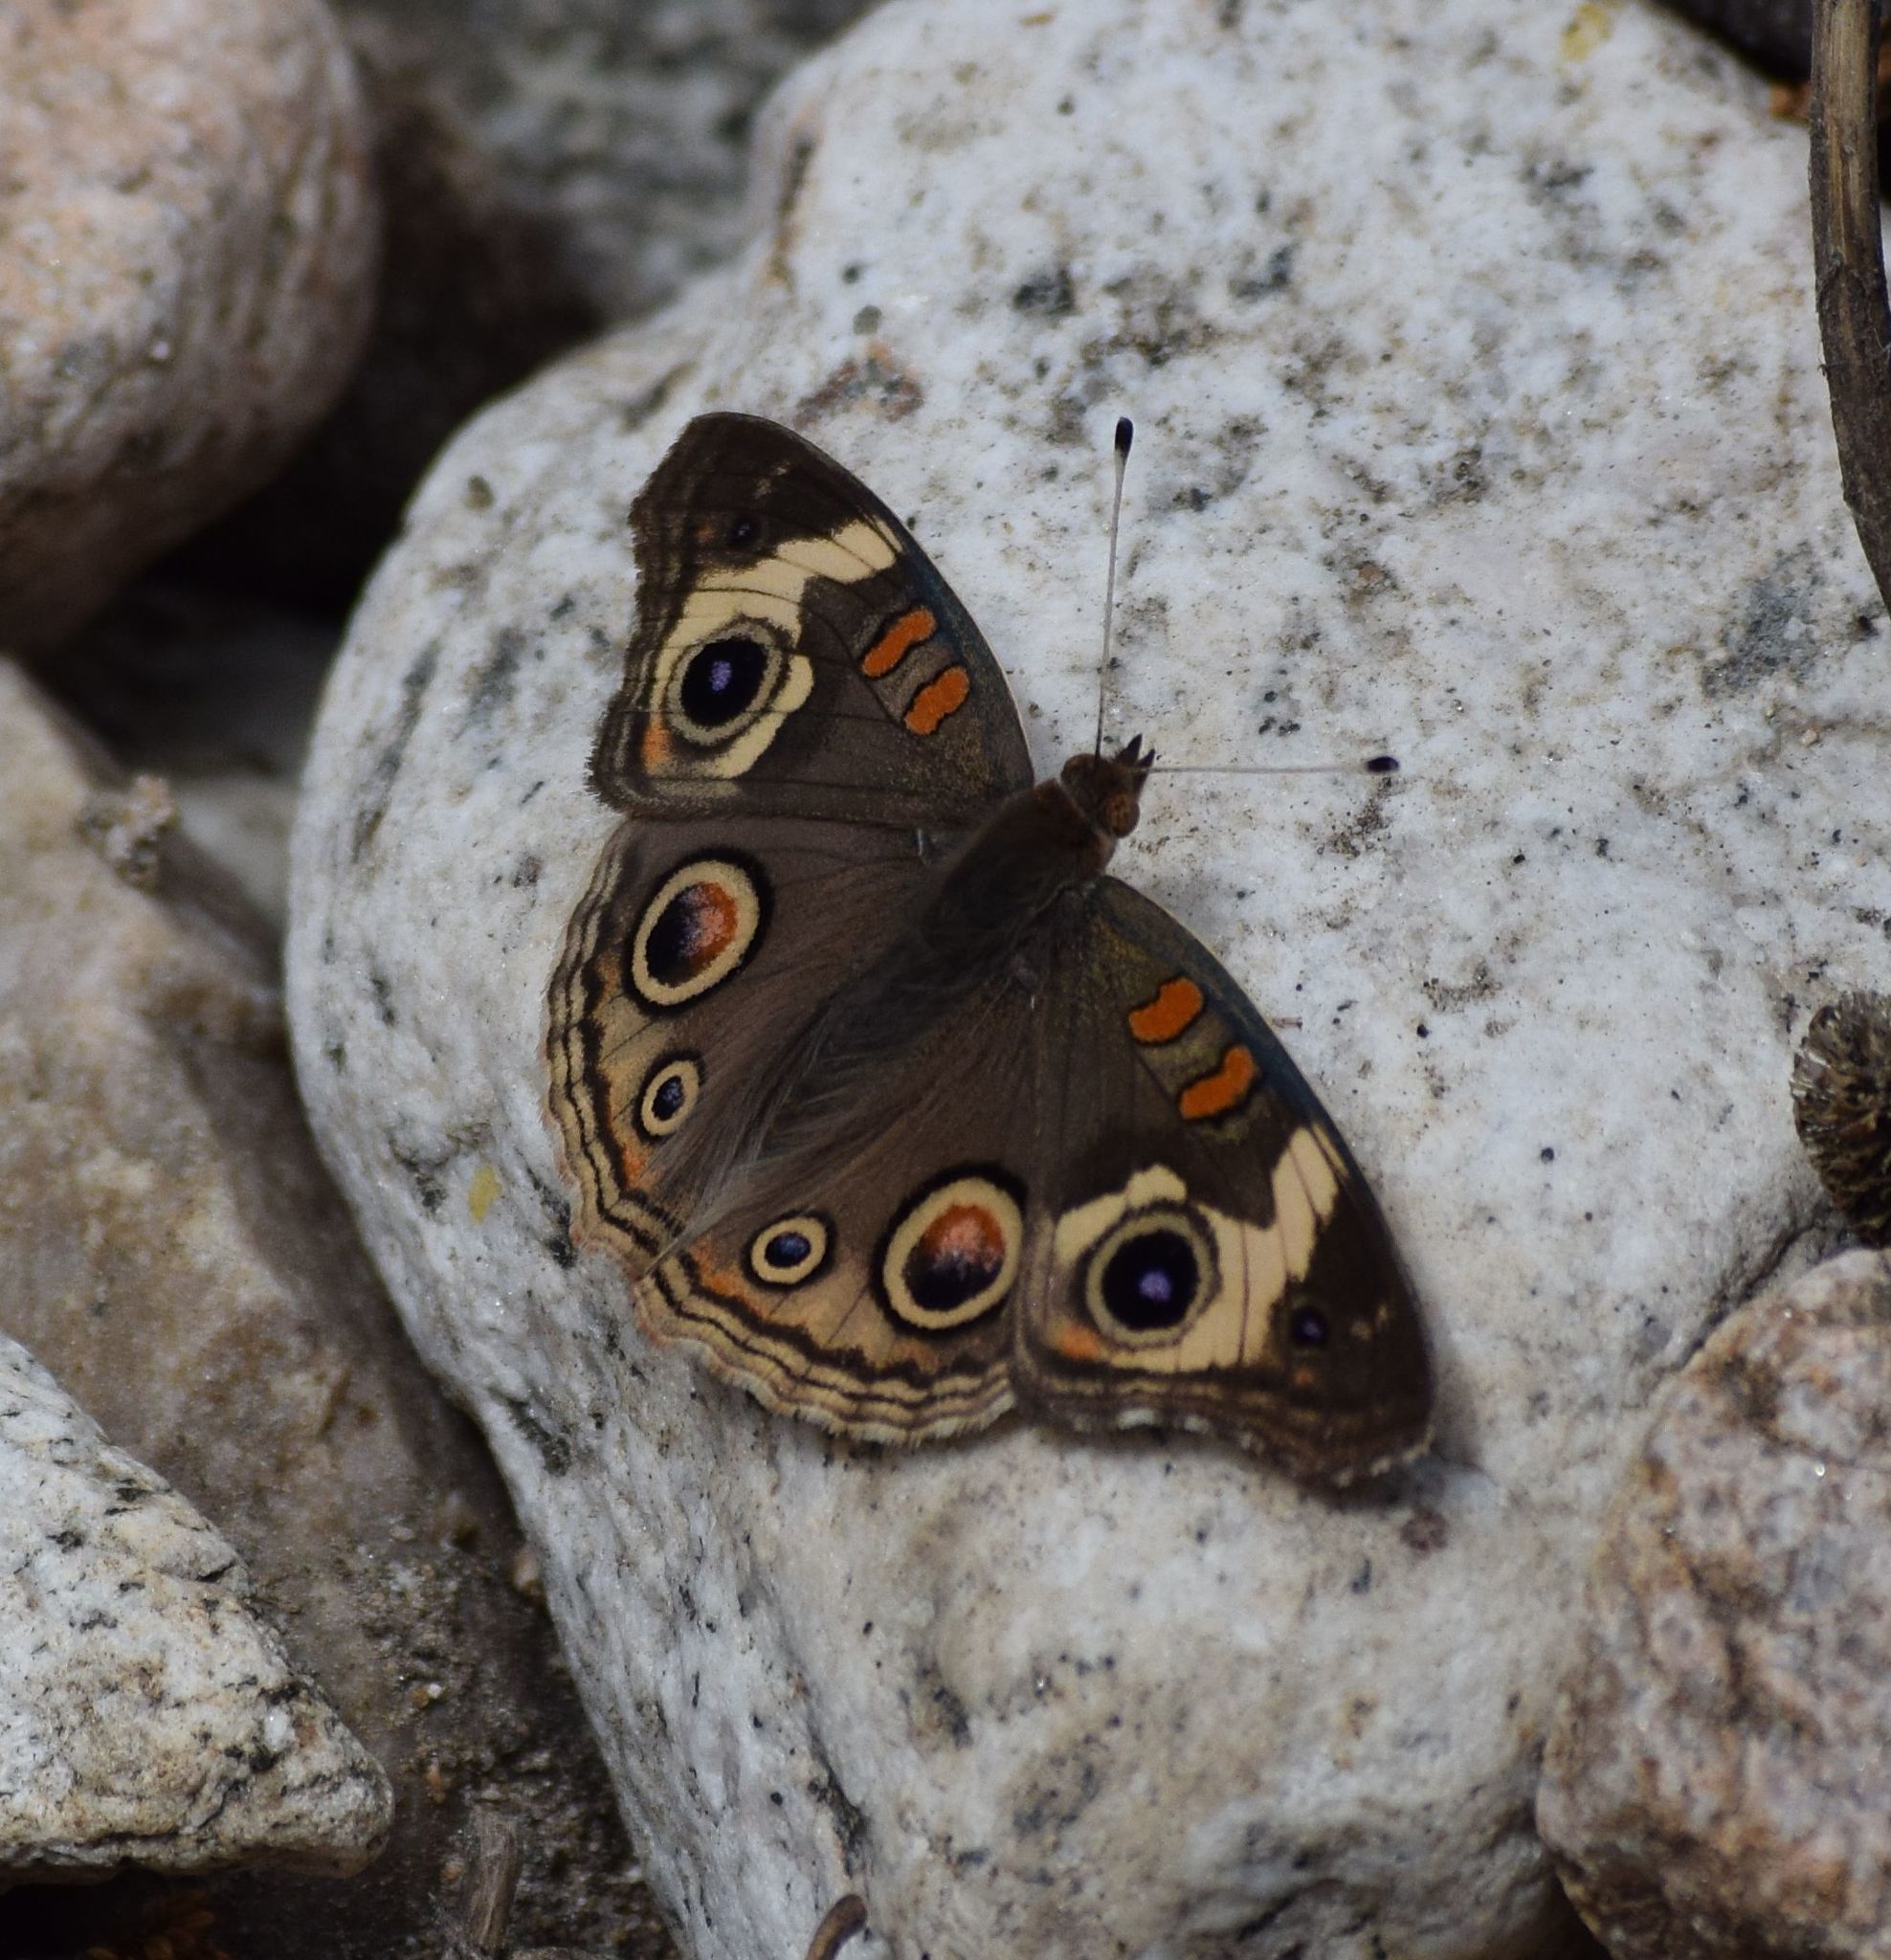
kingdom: Animalia
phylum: Arthropoda
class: Insecta
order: Lepidoptera
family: Nymphalidae
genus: Junonia
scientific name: Junonia grisea
